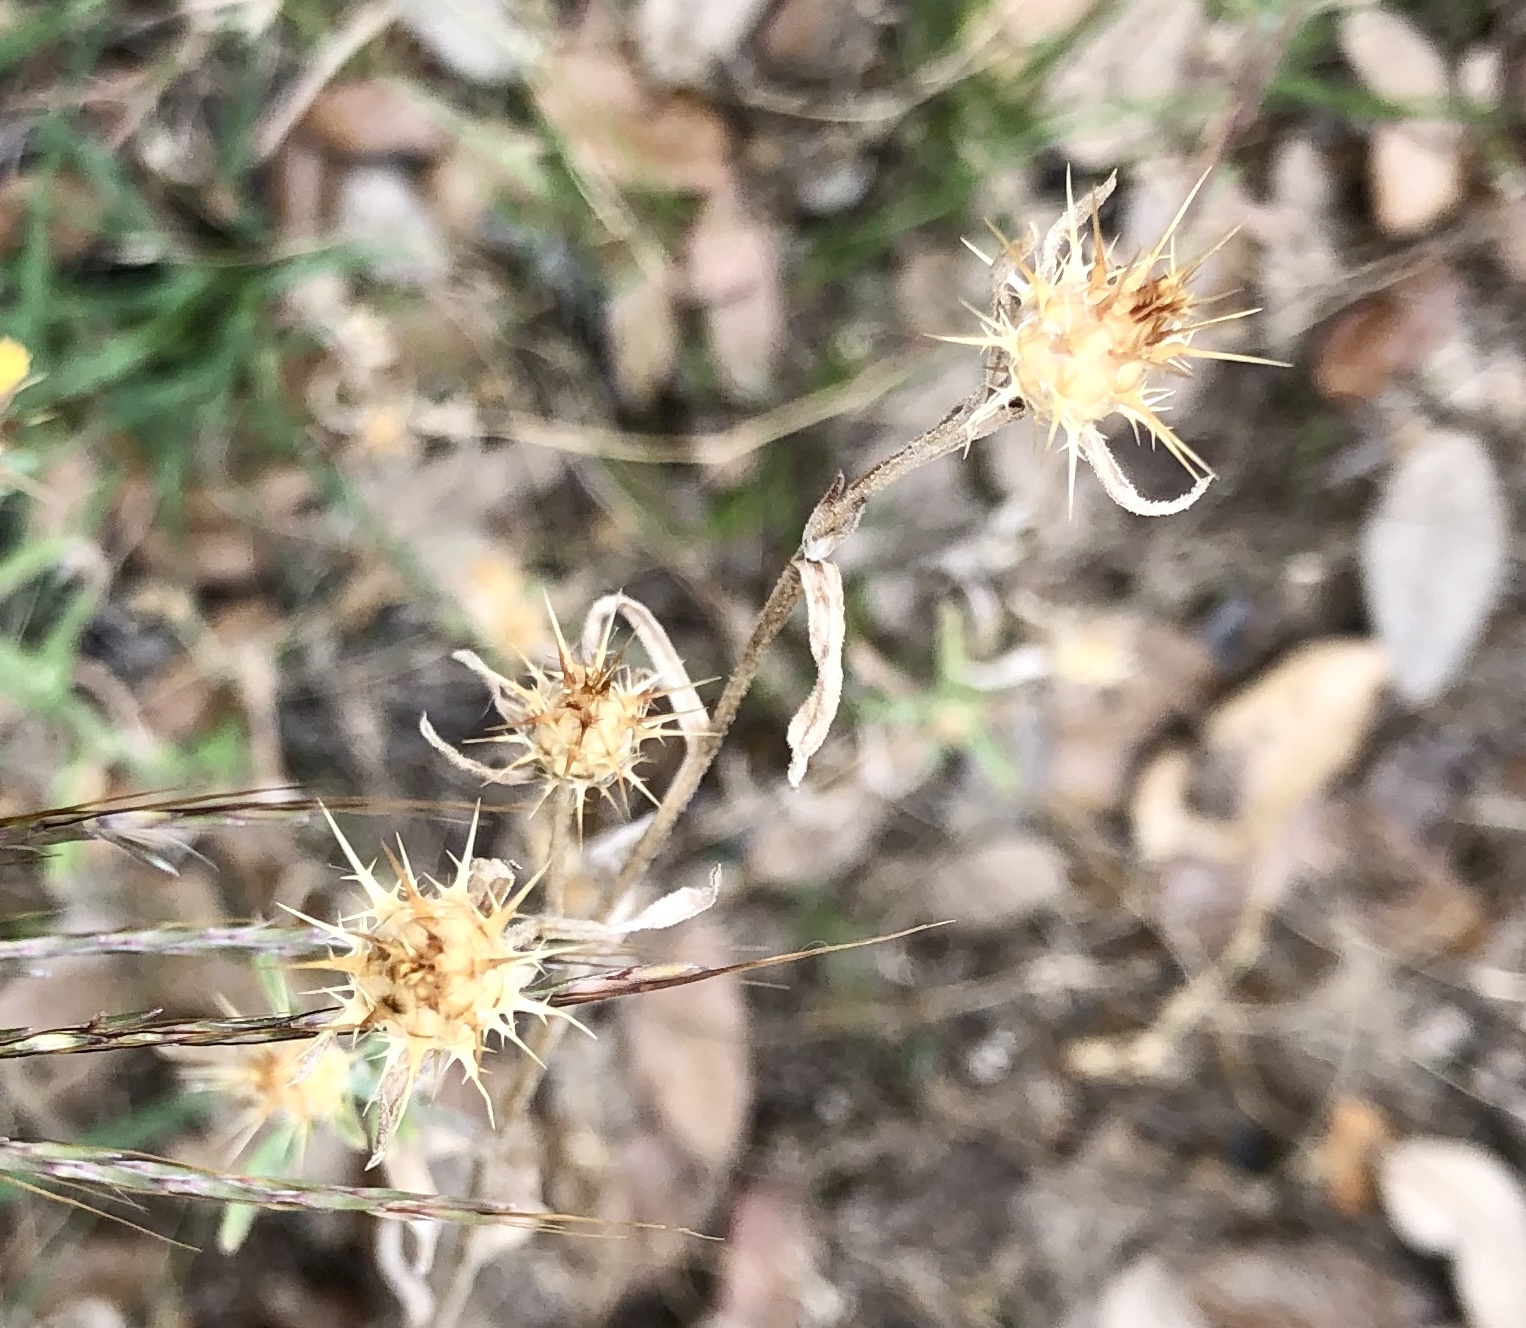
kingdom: Plantae
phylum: Tracheophyta
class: Magnoliopsida
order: Asterales
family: Asteraceae
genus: Centaurea
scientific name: Centaurea melitensis
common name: Maltese star-thistle
